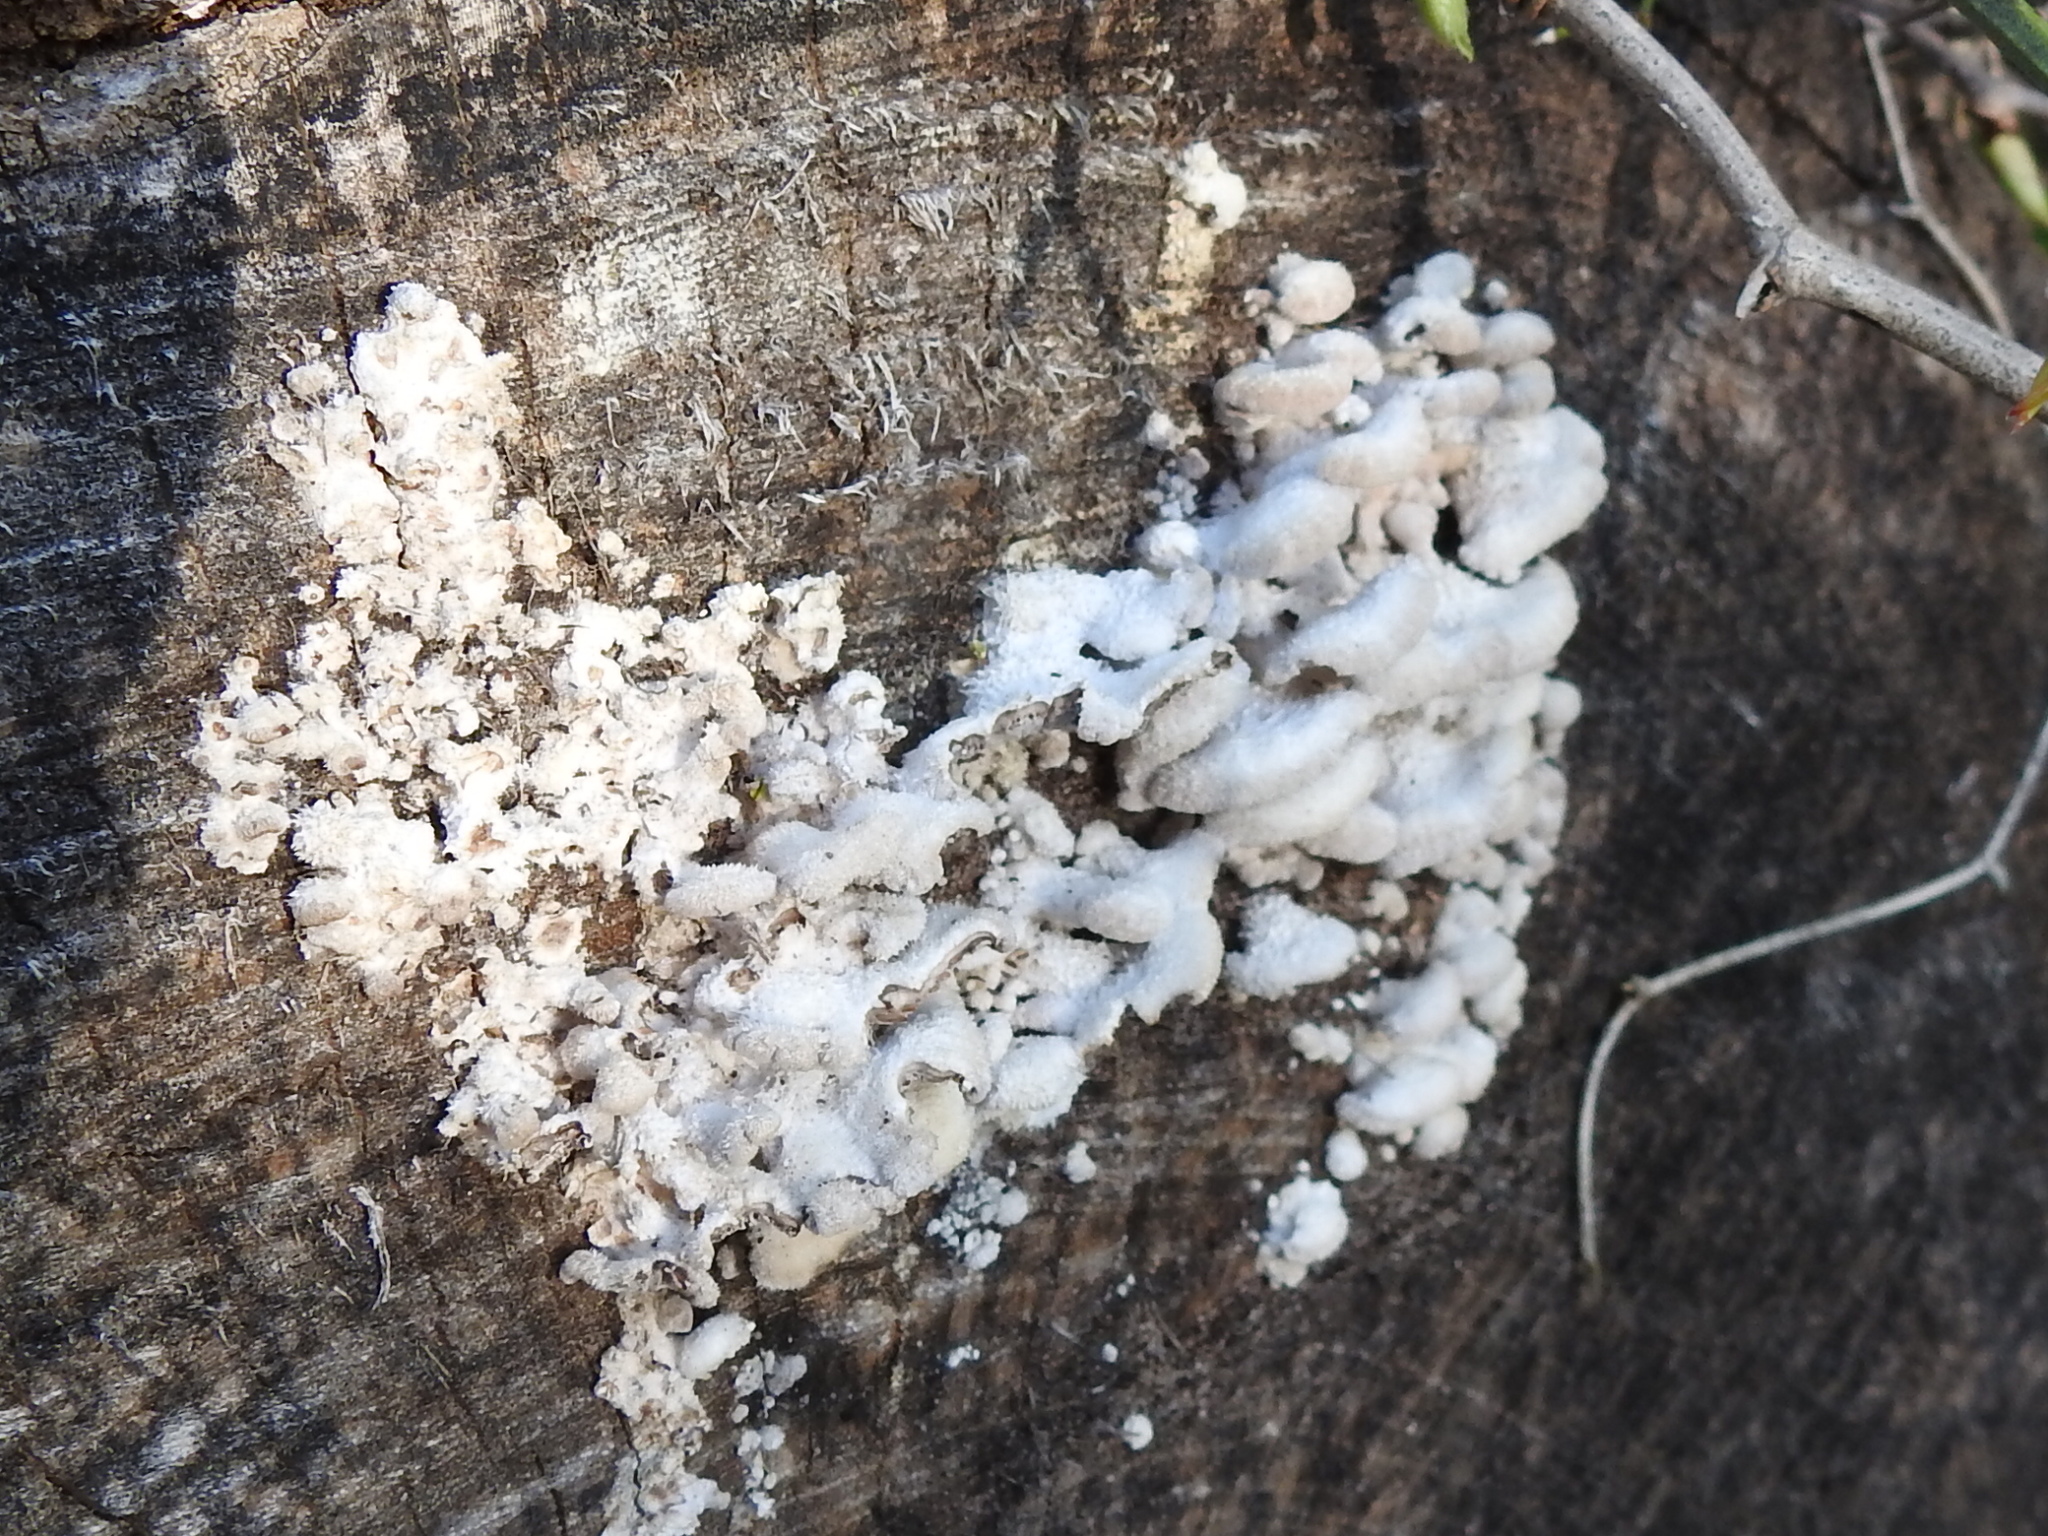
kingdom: Fungi
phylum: Basidiomycota
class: Agaricomycetes
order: Agaricales
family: Schizophyllaceae
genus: Schizophyllum
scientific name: Schizophyllum commune
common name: Common porecrust
